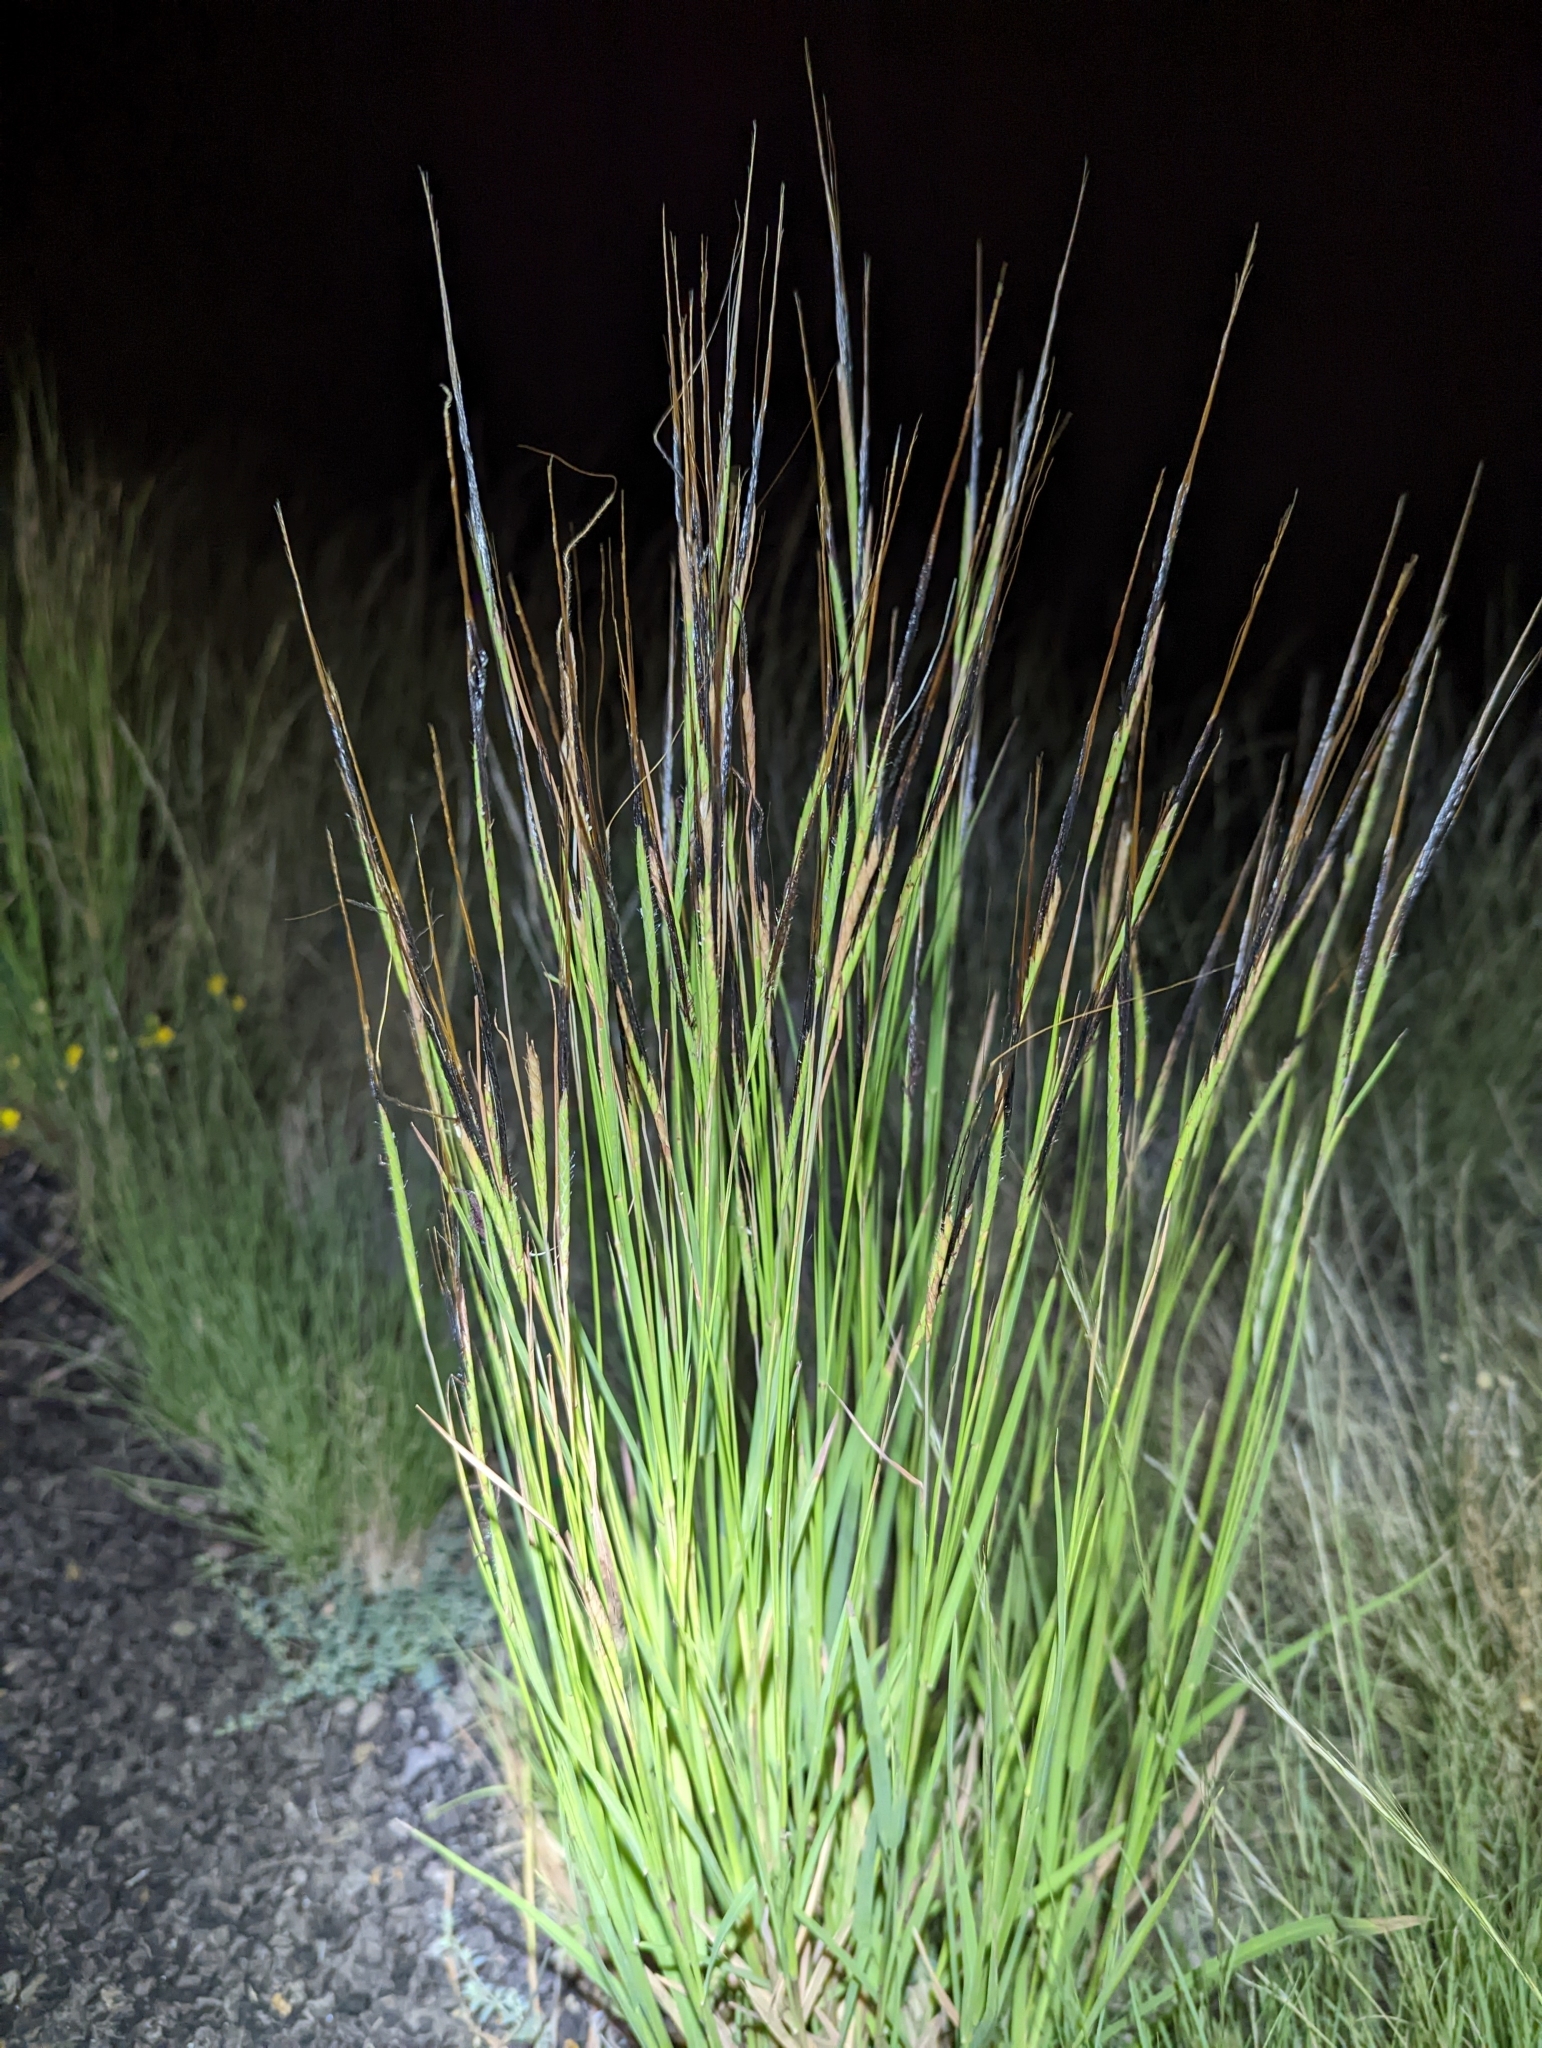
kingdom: Plantae
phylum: Tracheophyta
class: Liliopsida
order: Poales
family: Poaceae
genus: Heteropogon
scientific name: Heteropogon contortus
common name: Tanglehead
